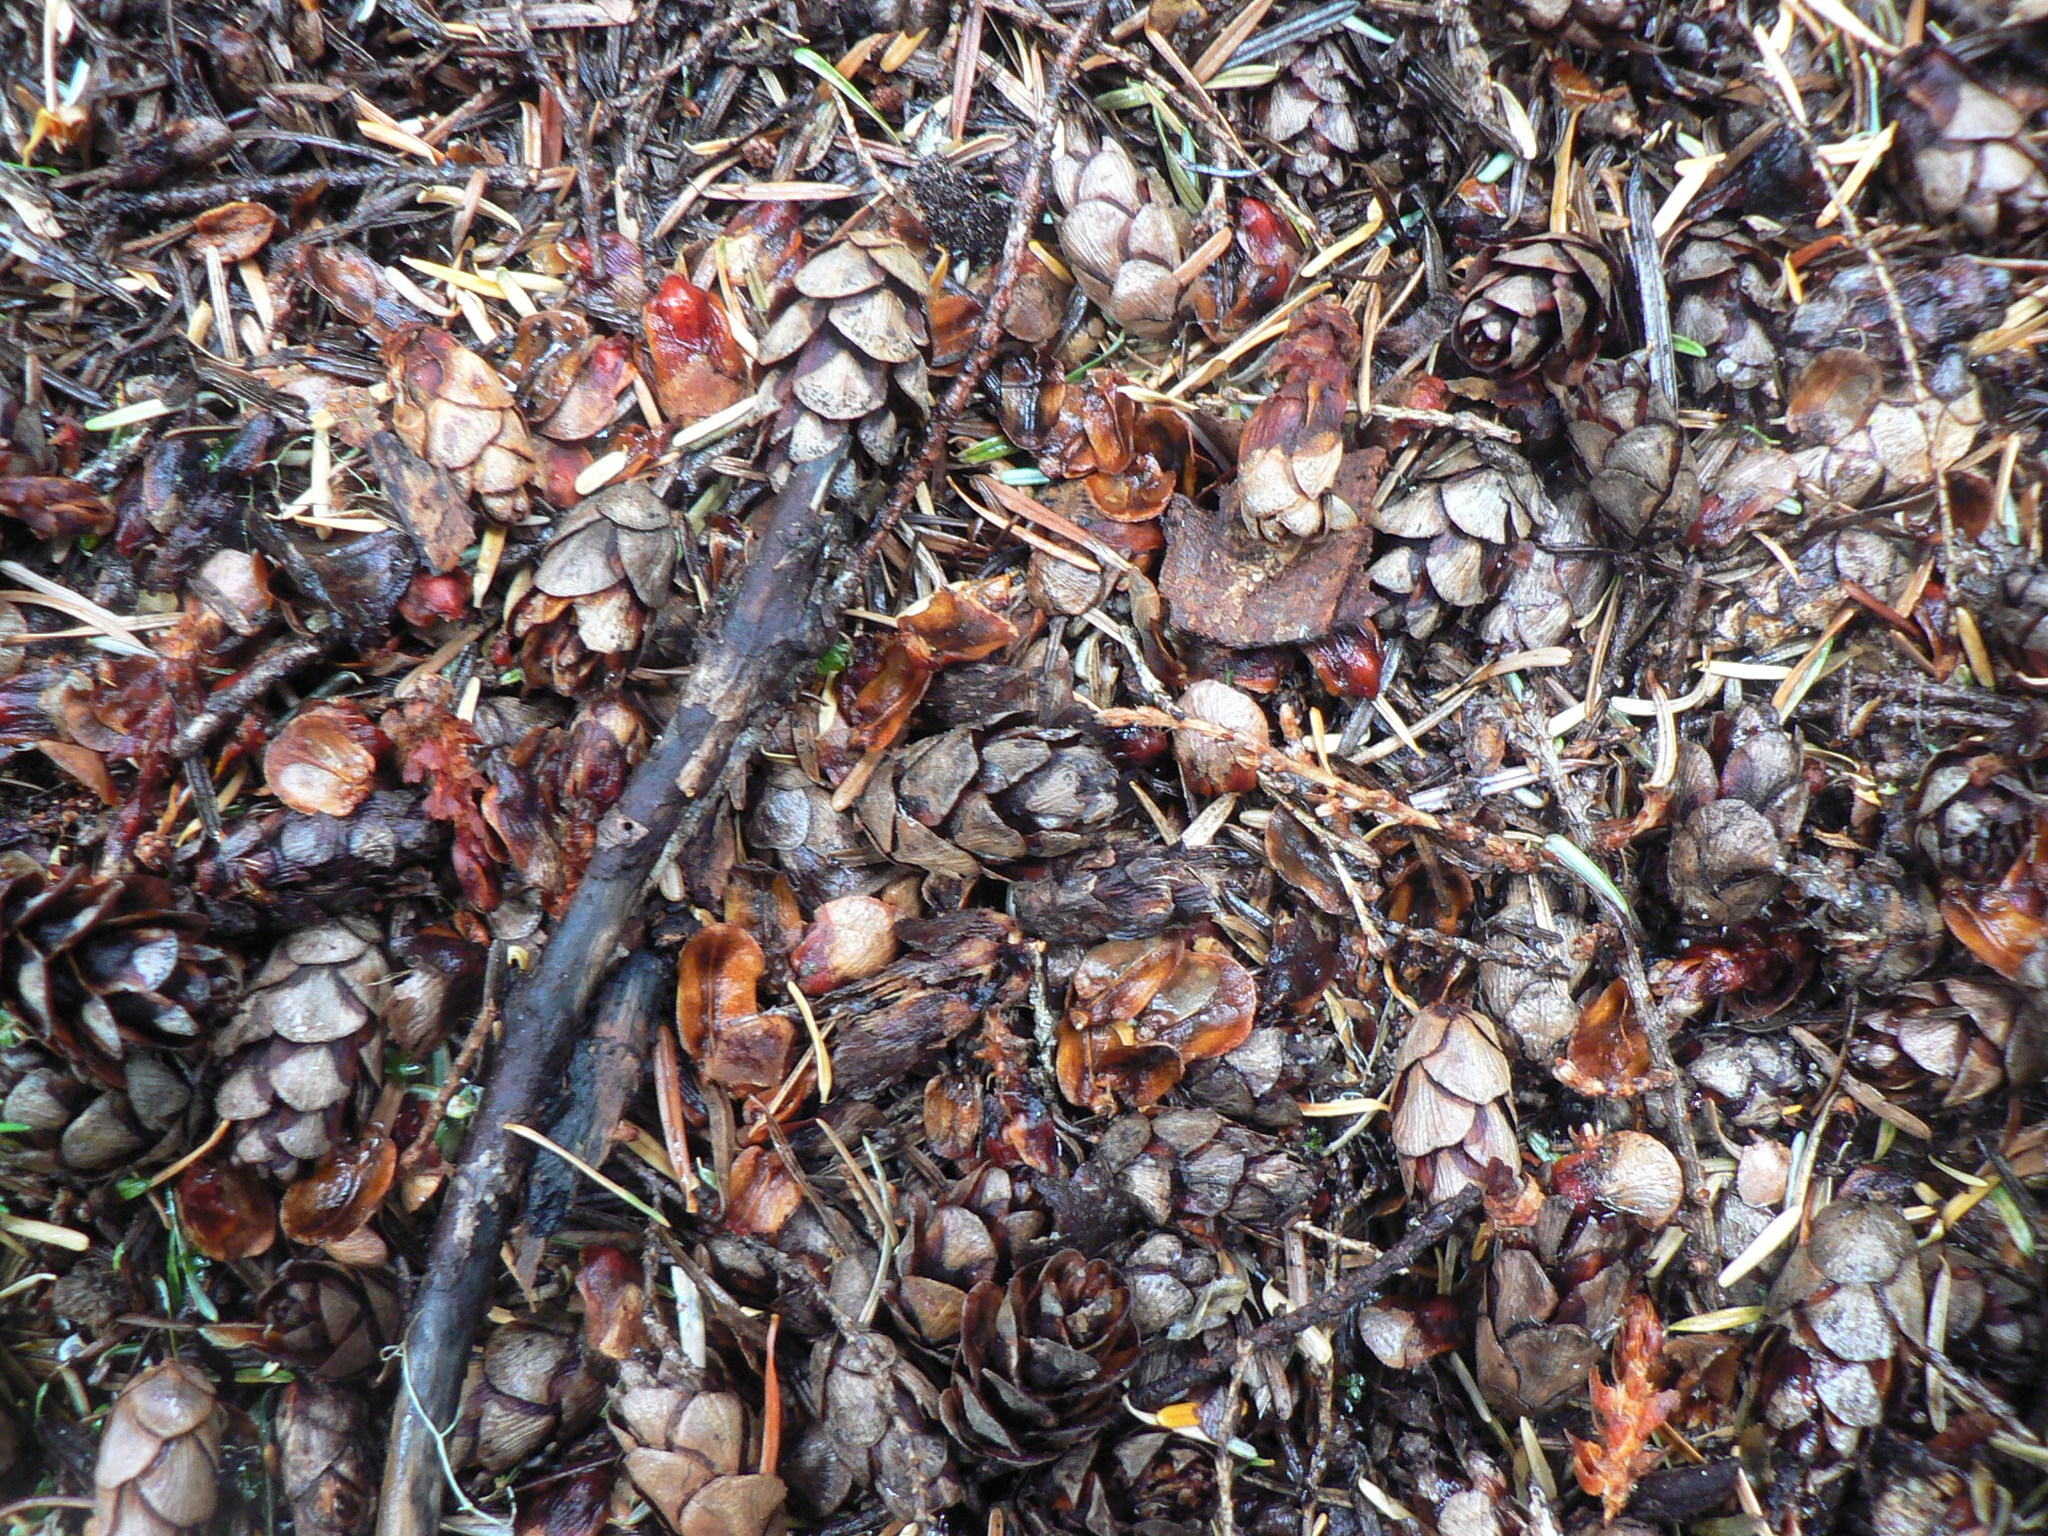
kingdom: Plantae
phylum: Tracheophyta
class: Pinopsida
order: Pinales
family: Pinaceae
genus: Tsuga
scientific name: Tsuga heterophylla
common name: Western hemlock
